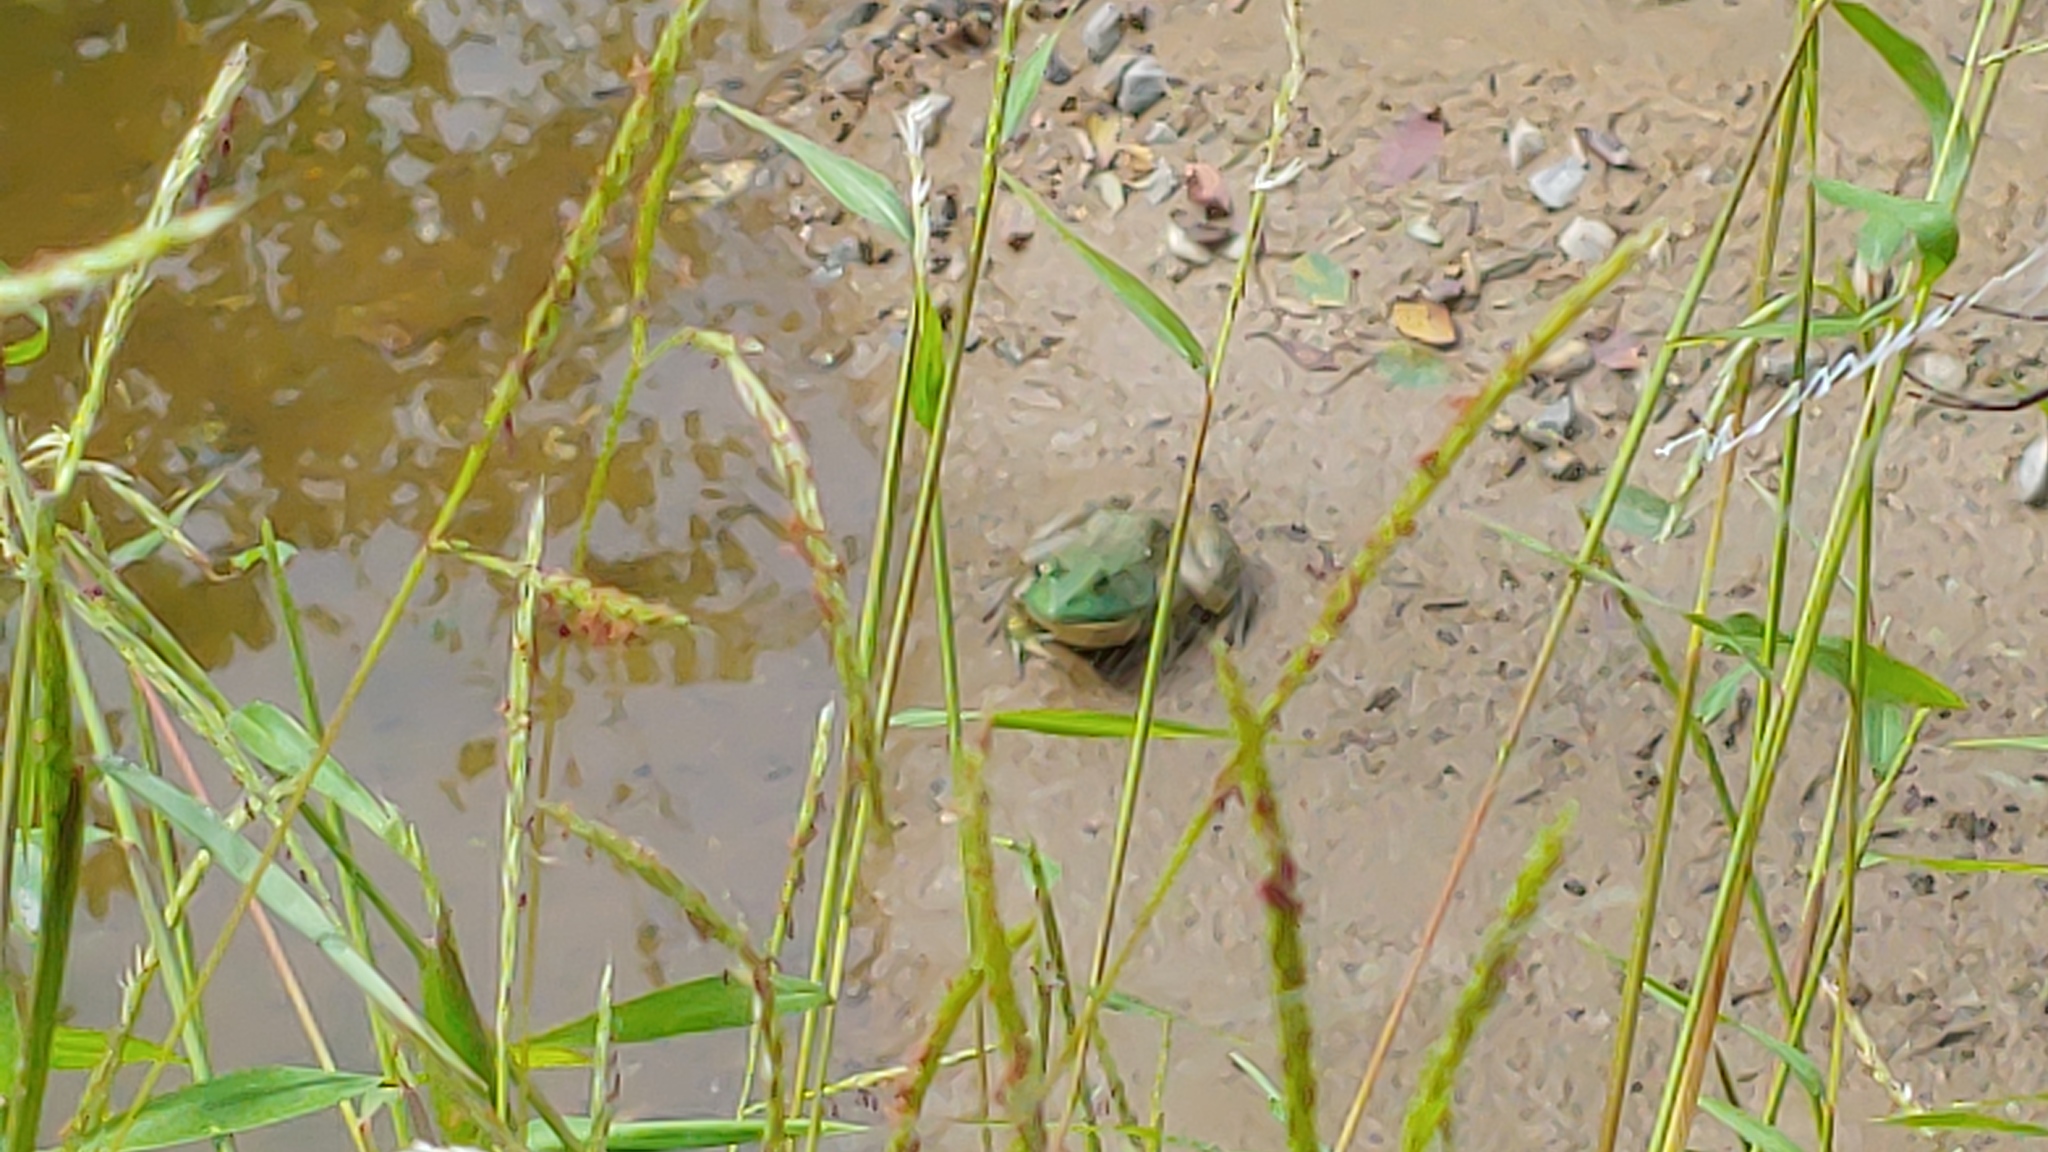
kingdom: Animalia
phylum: Chordata
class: Amphibia
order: Anura
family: Ranidae
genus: Lithobates
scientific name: Lithobates catesbeianus
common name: American bullfrog
